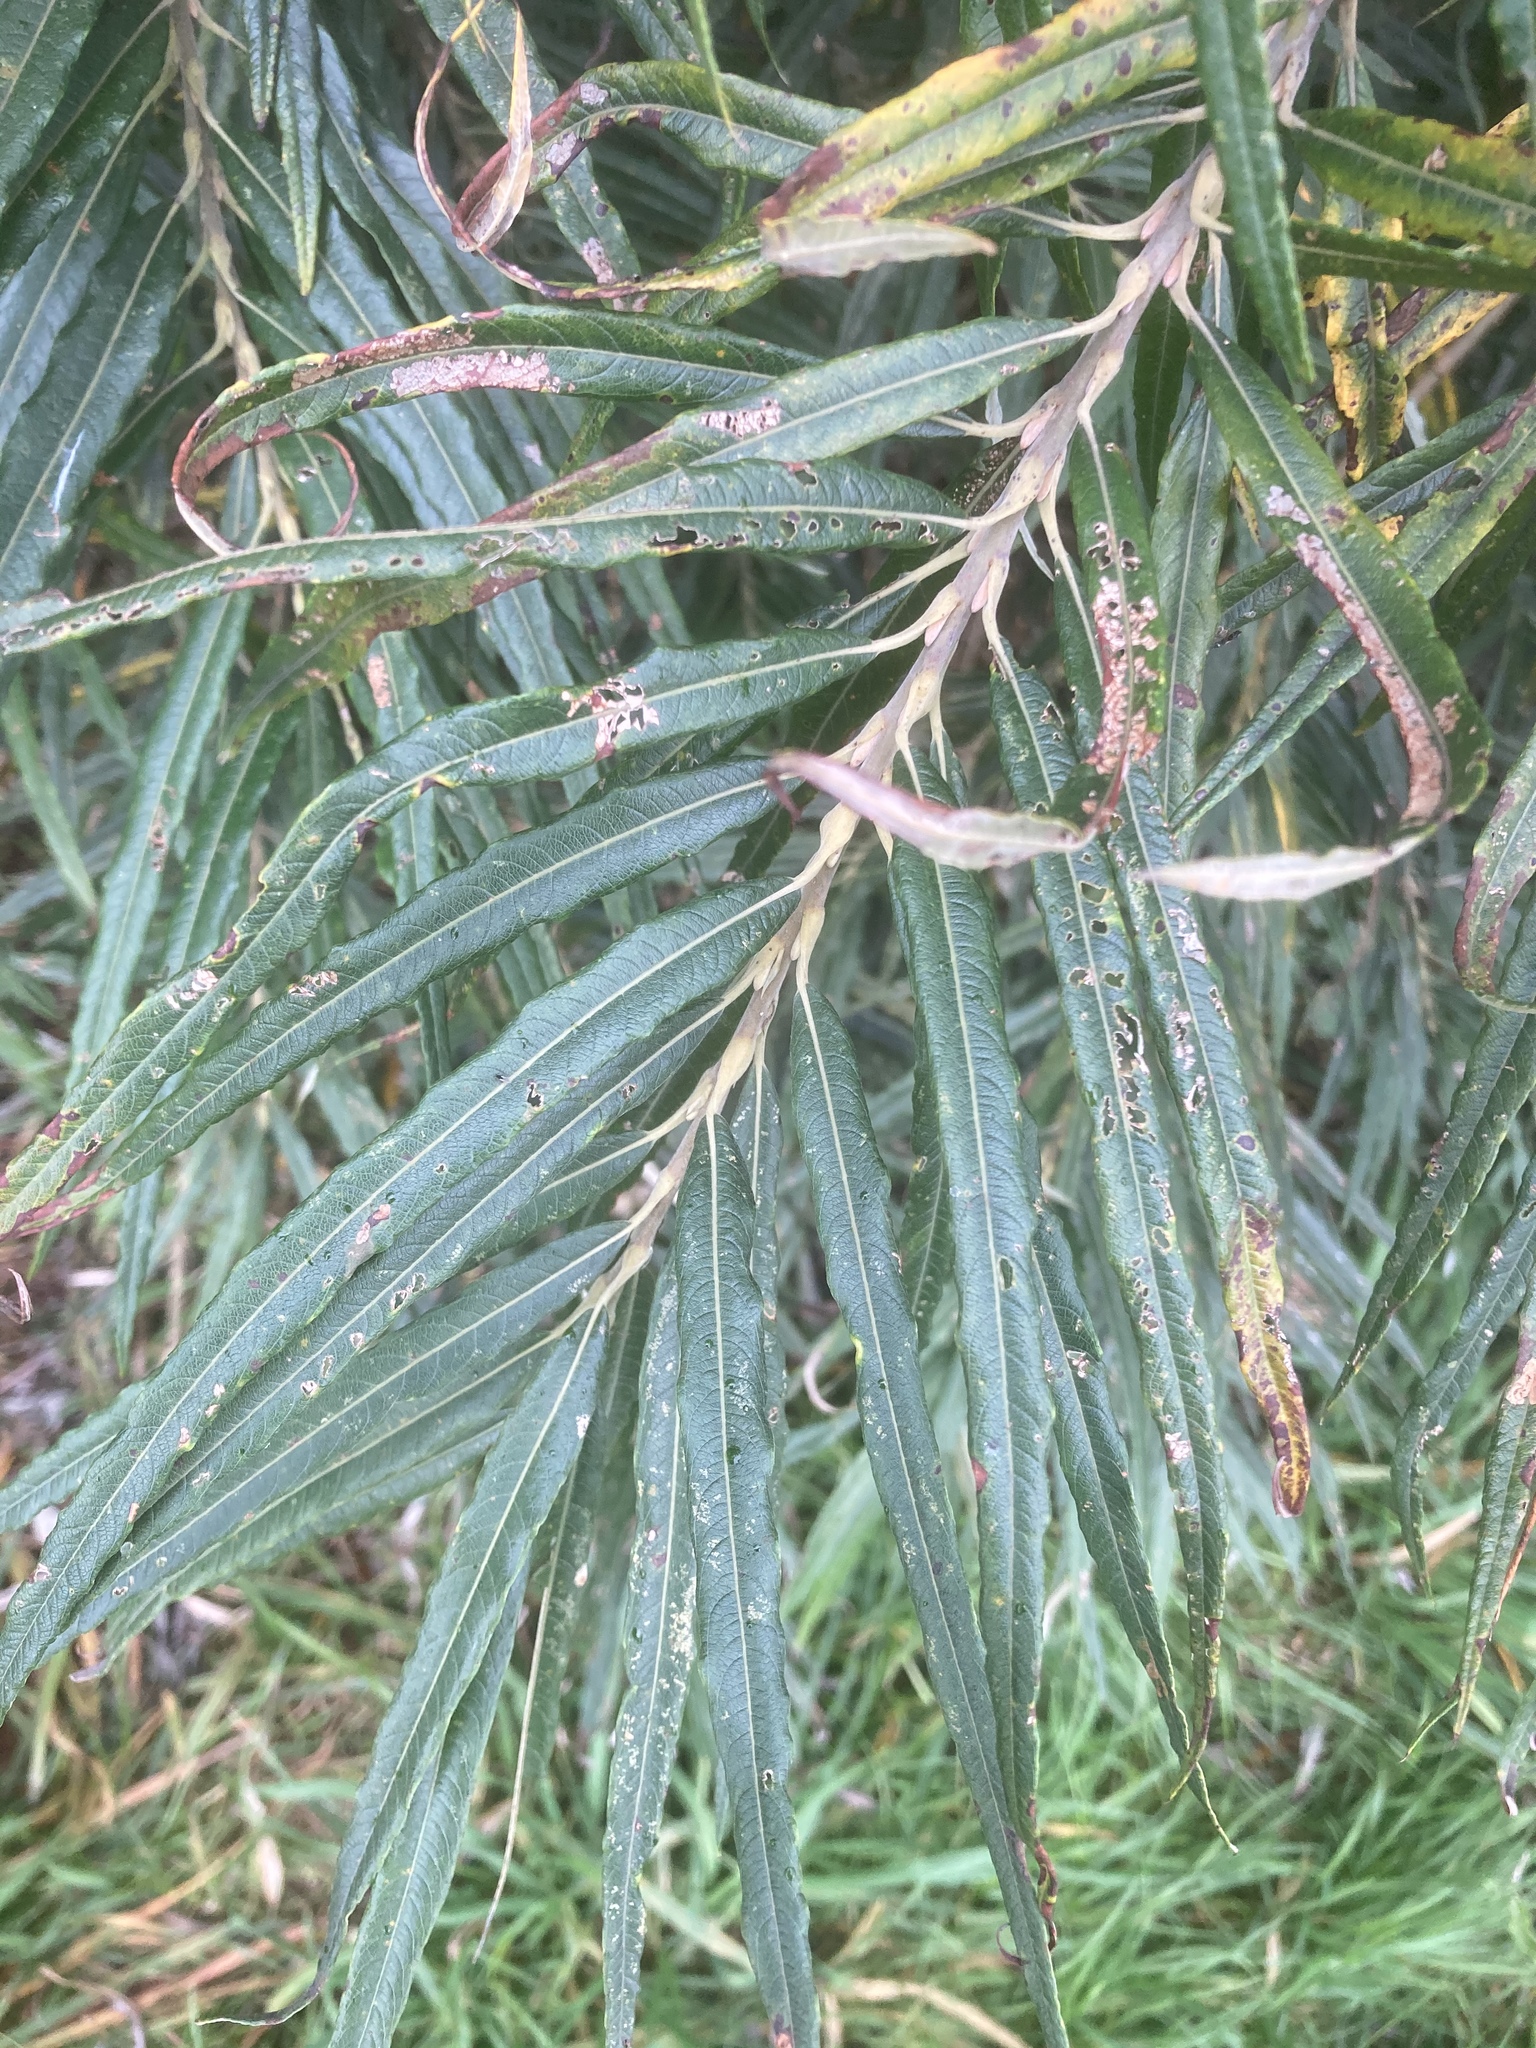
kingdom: Plantae
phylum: Tracheophyta
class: Magnoliopsida
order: Malpighiales
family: Salicaceae
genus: Salix
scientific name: Salix viminalis
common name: Osier
